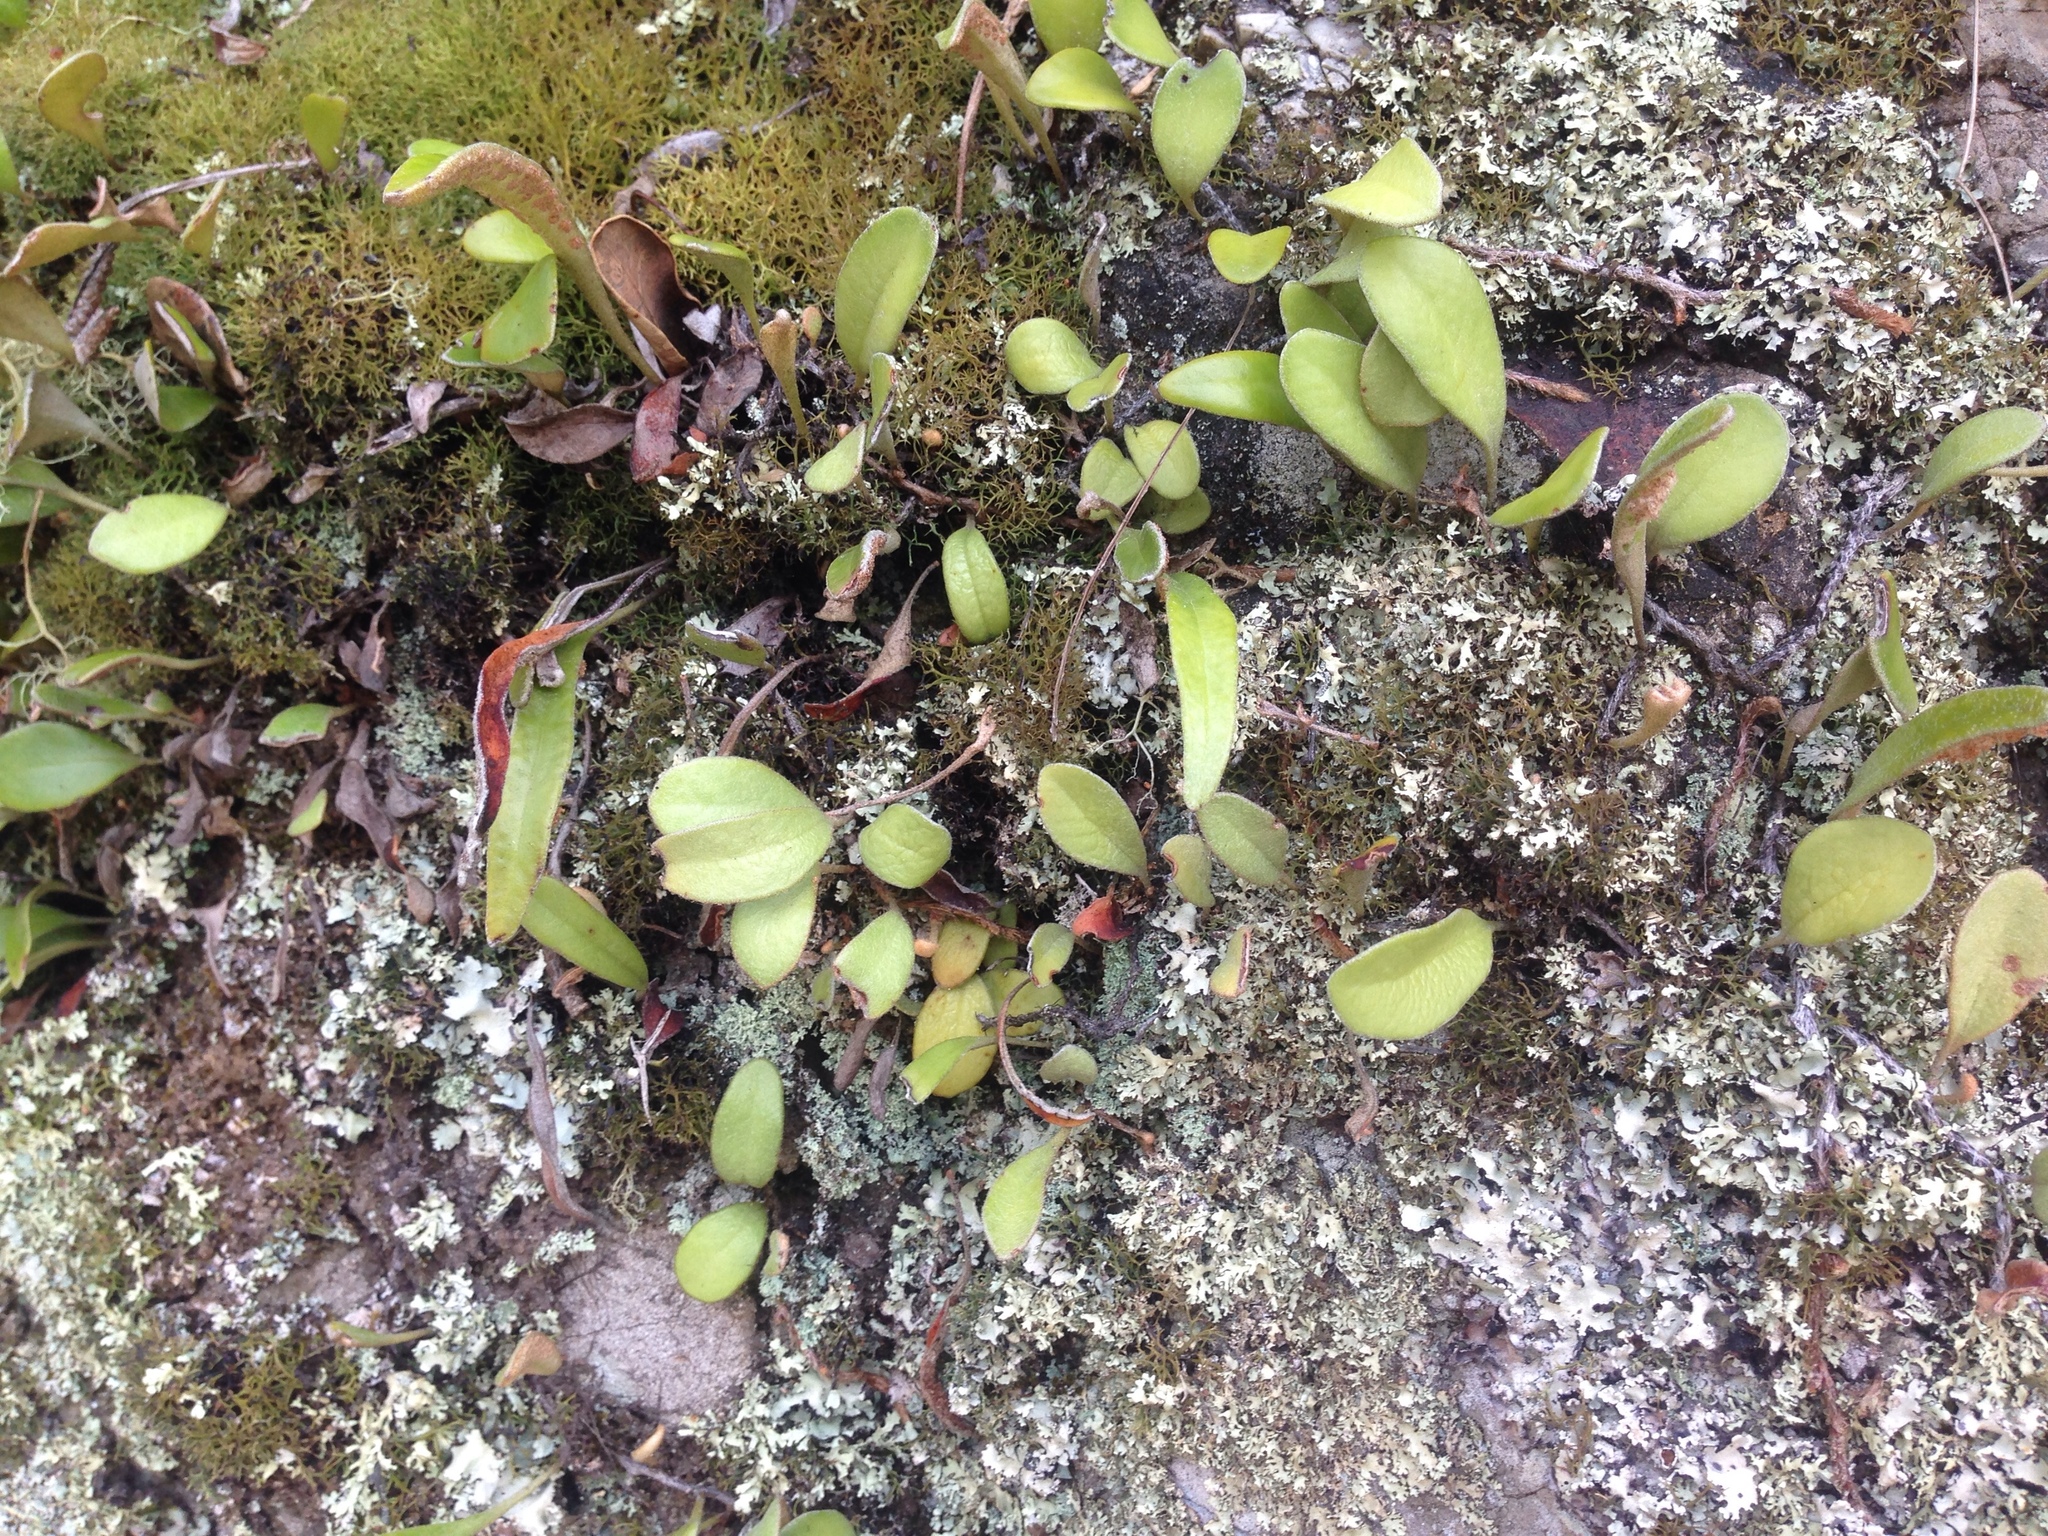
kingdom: Plantae
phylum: Tracheophyta
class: Polypodiopsida
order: Polypodiales
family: Polypodiaceae
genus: Pyrrosia
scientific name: Pyrrosia eleagnifolia
